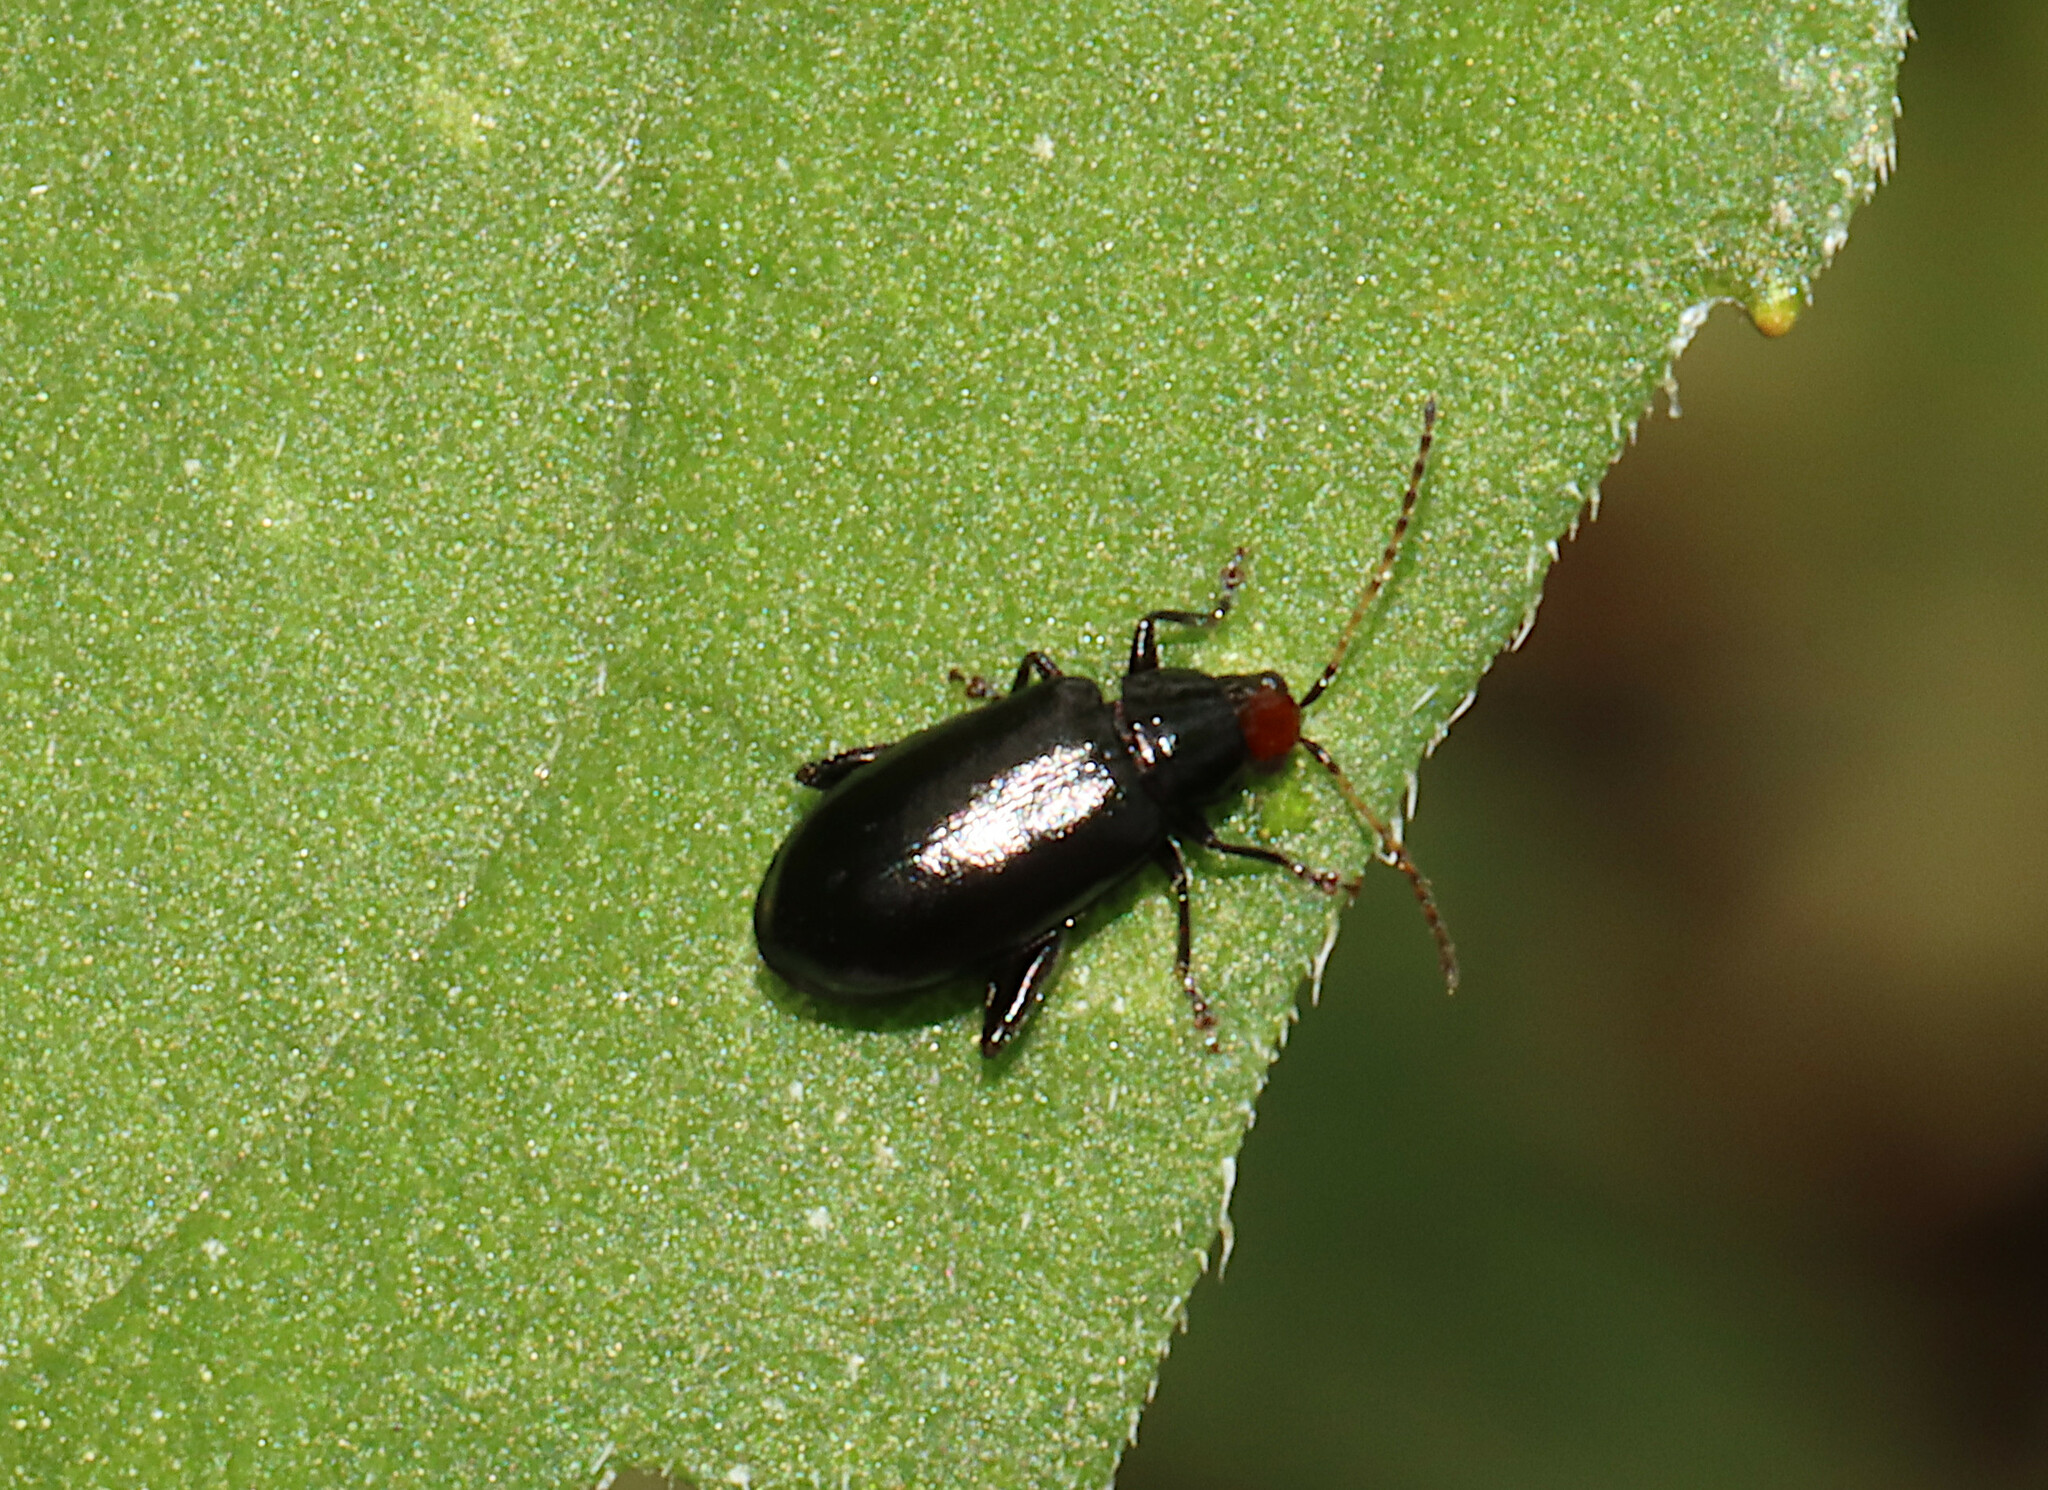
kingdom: Animalia
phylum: Arthropoda
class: Insecta
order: Coleoptera
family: Chrysomelidae
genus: Systena
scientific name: Systena frontalis
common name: Red-headed flea beetle
